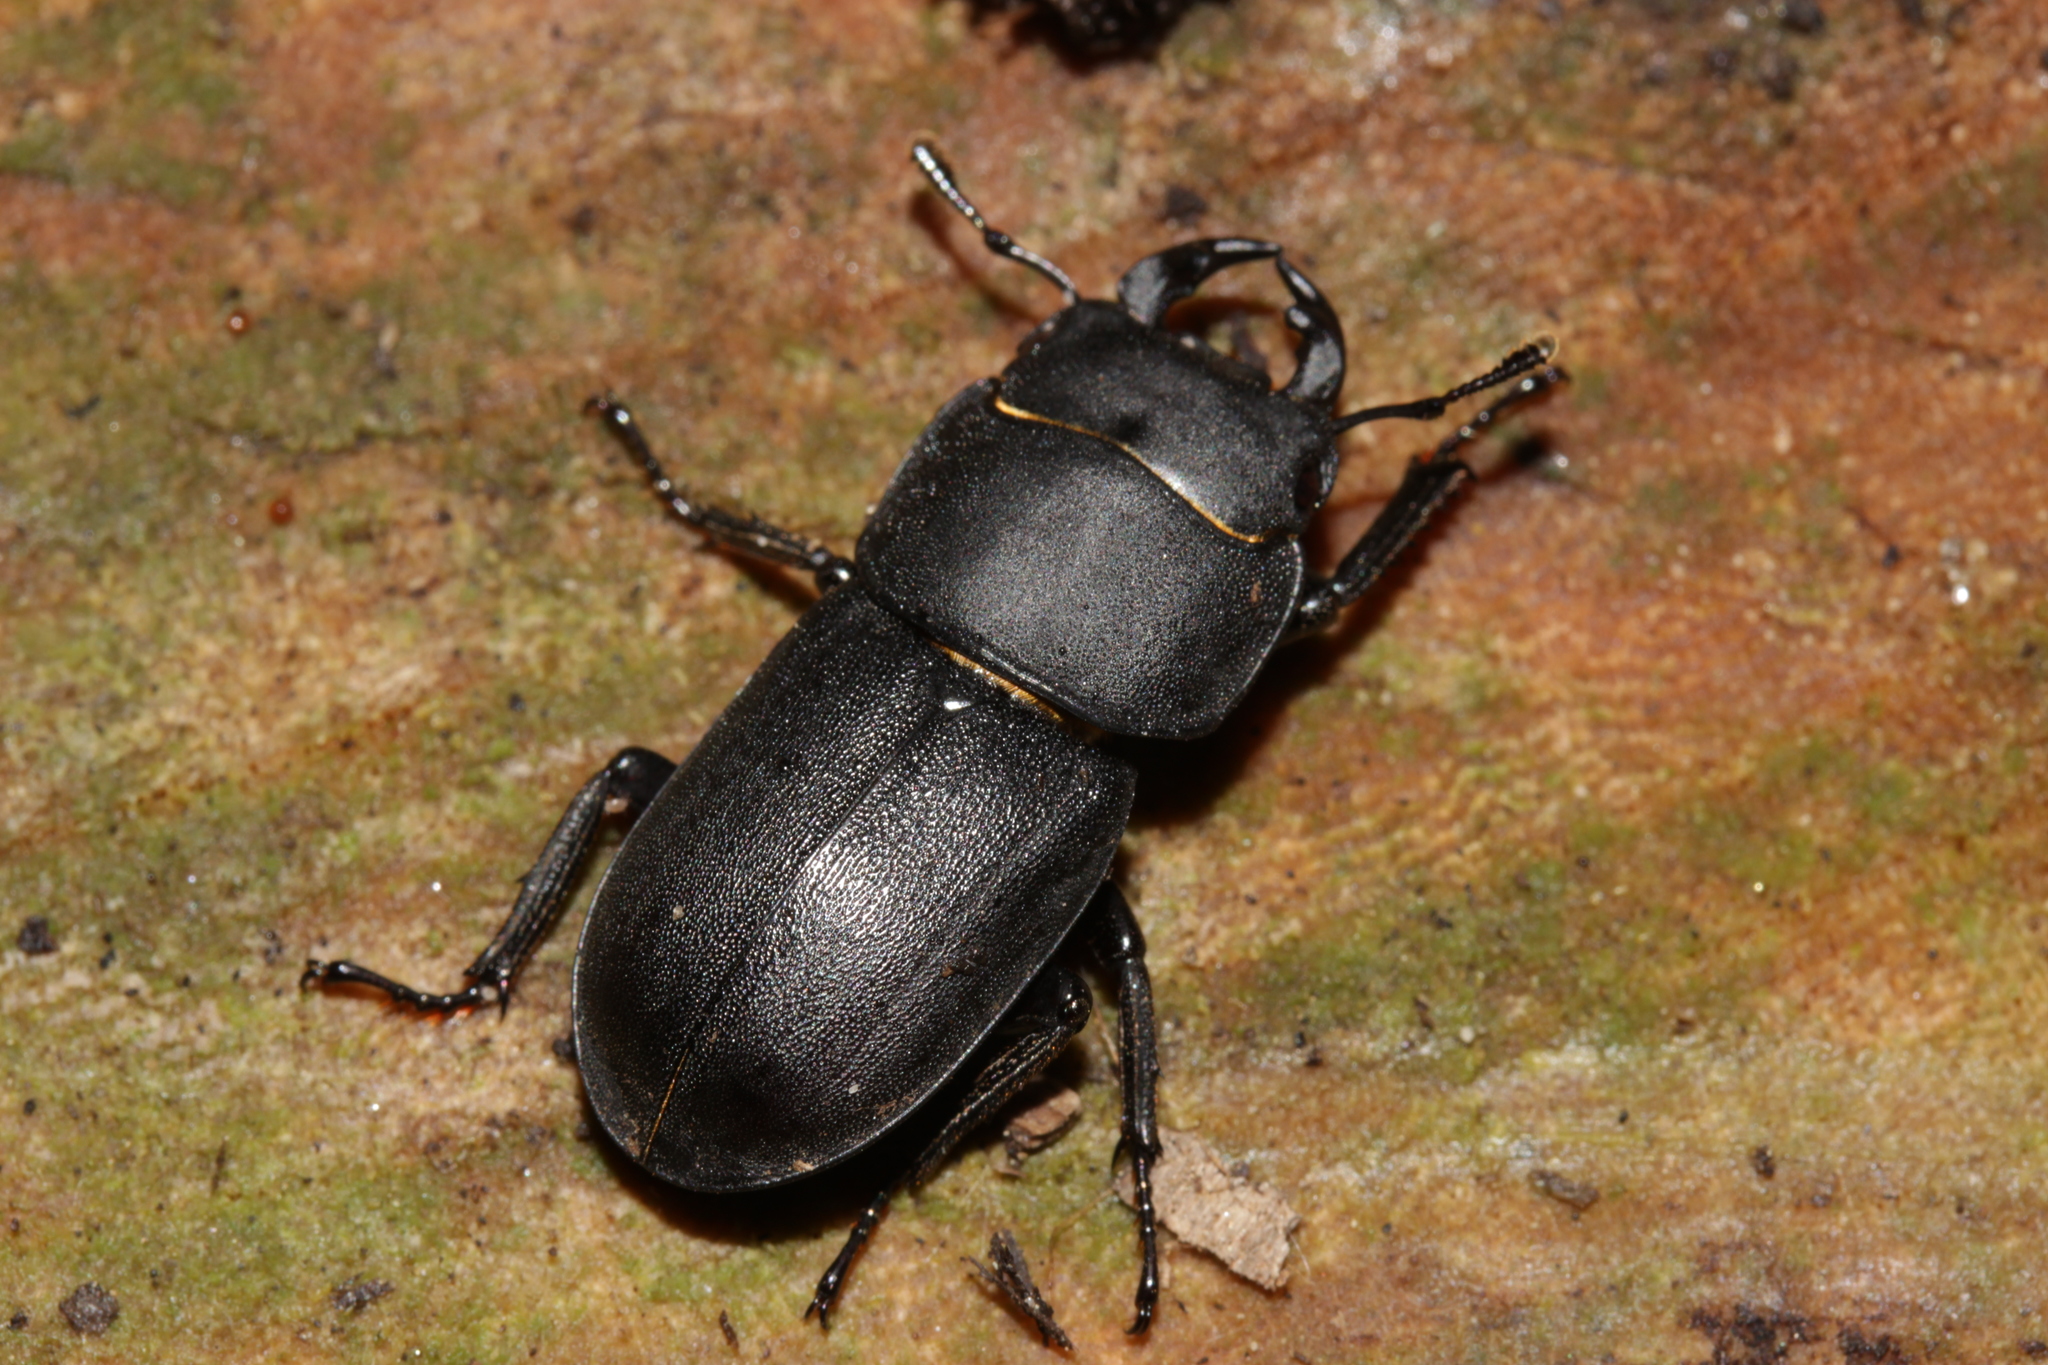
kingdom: Animalia
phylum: Arthropoda
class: Insecta
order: Coleoptera
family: Lucanidae
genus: Dorcus
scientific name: Dorcus parallelipipedus
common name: Lesser stag beetle
